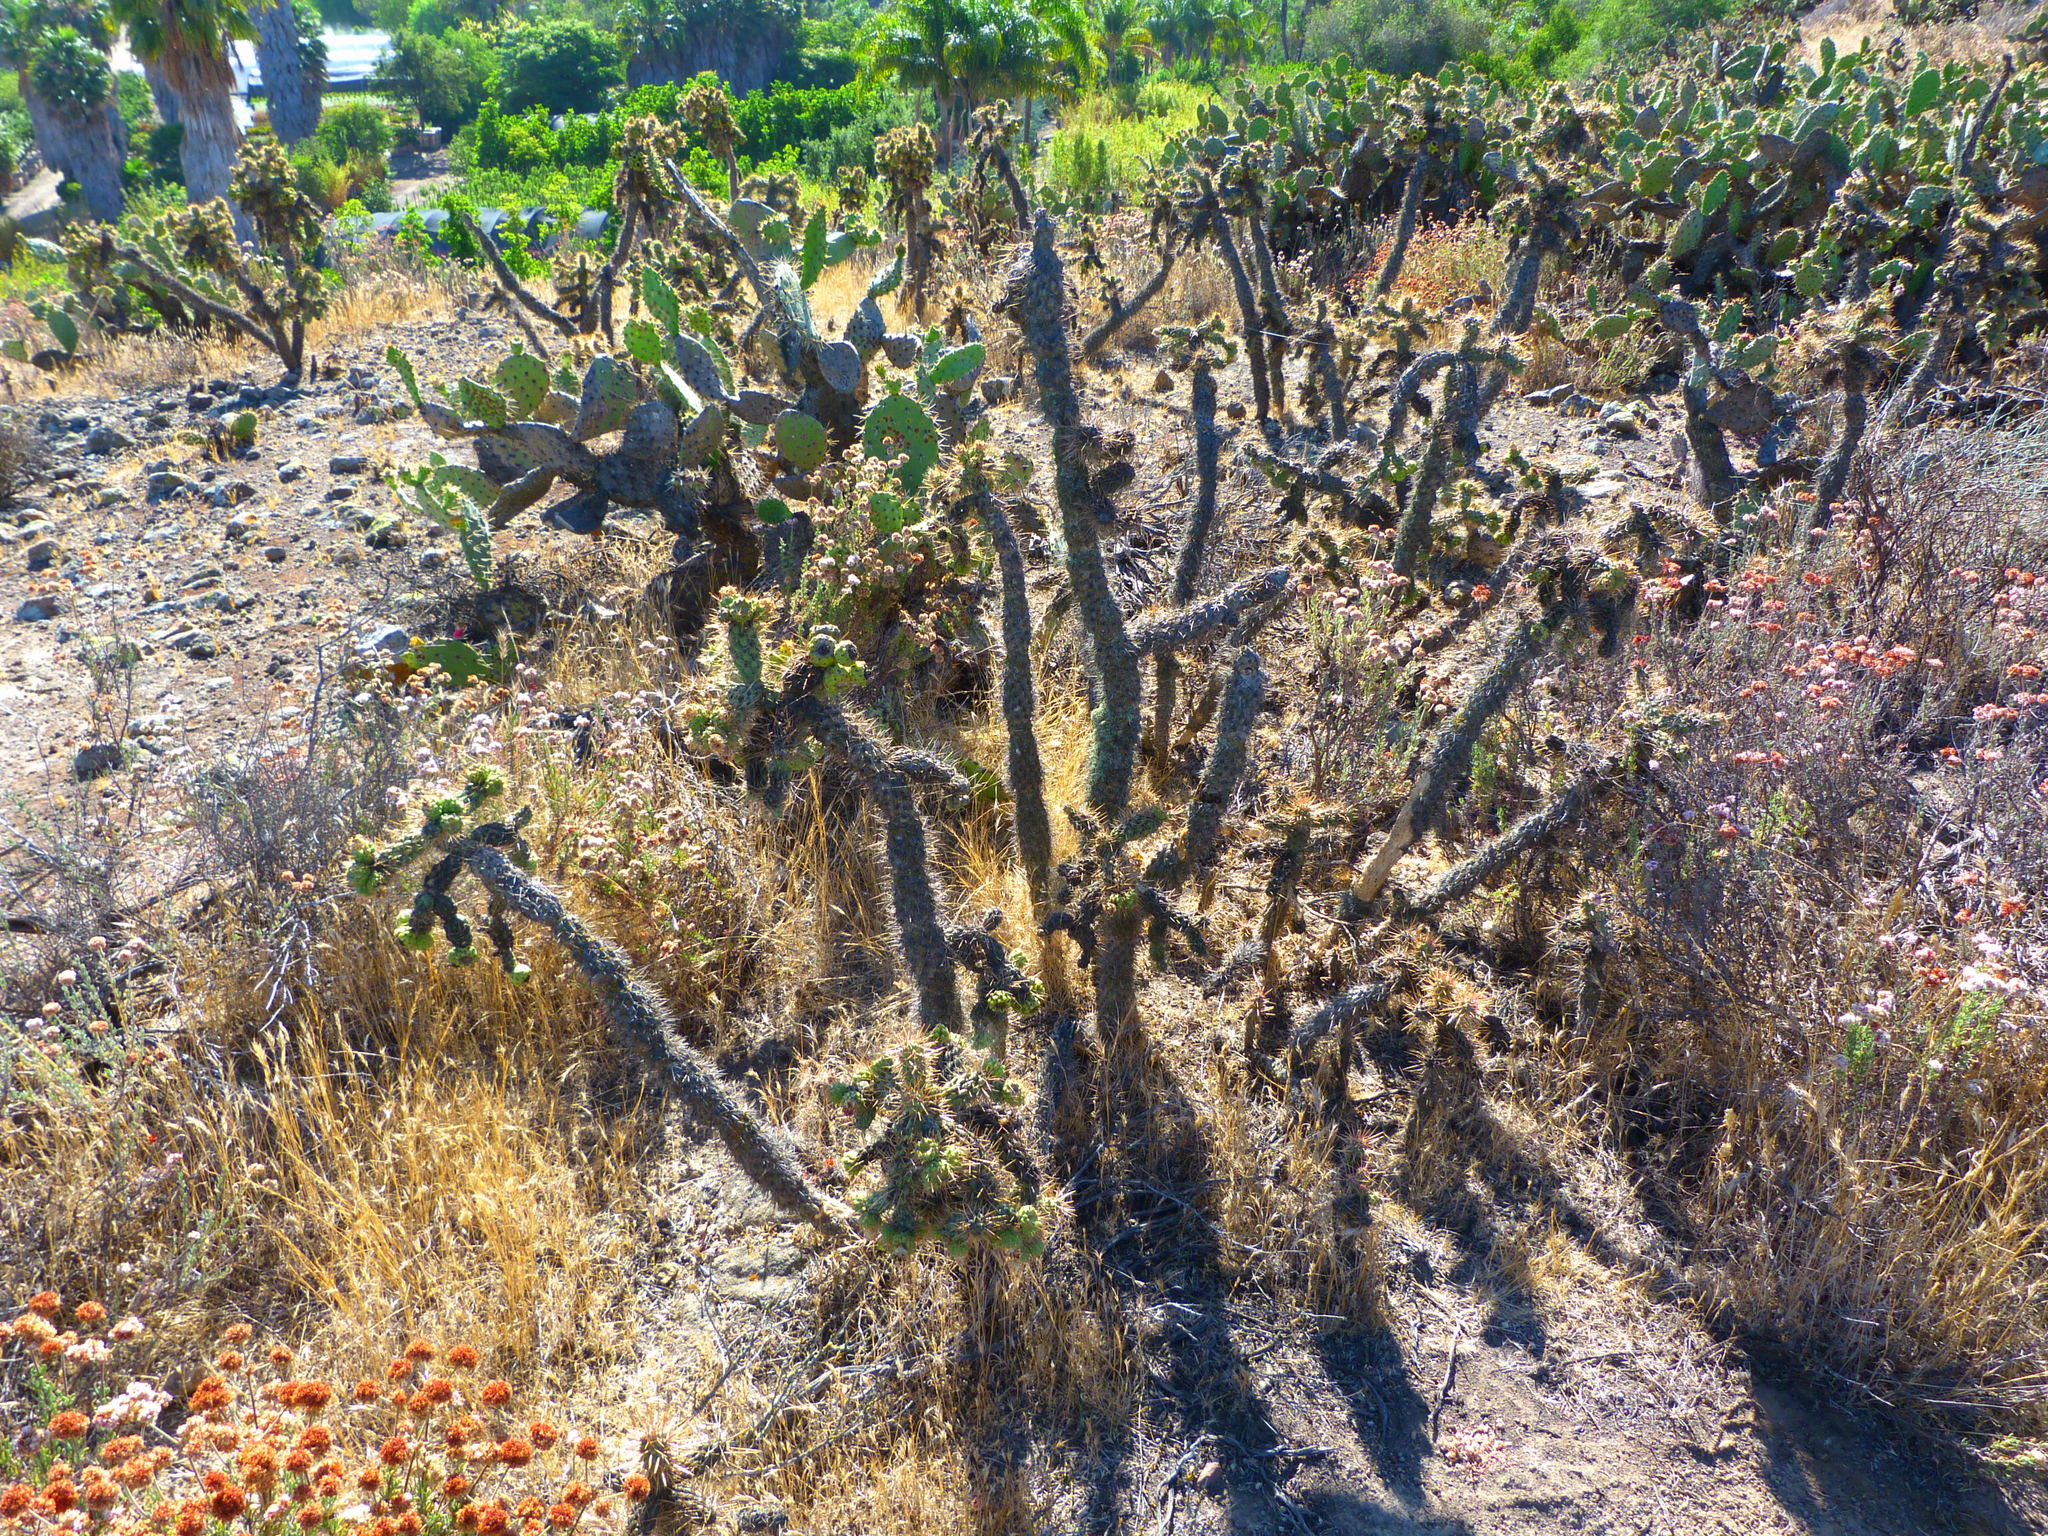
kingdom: Plantae
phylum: Tracheophyta
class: Magnoliopsida
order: Caryophyllales
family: Cactaceae
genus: Cylindropuntia
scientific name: Cylindropuntia prolifera
